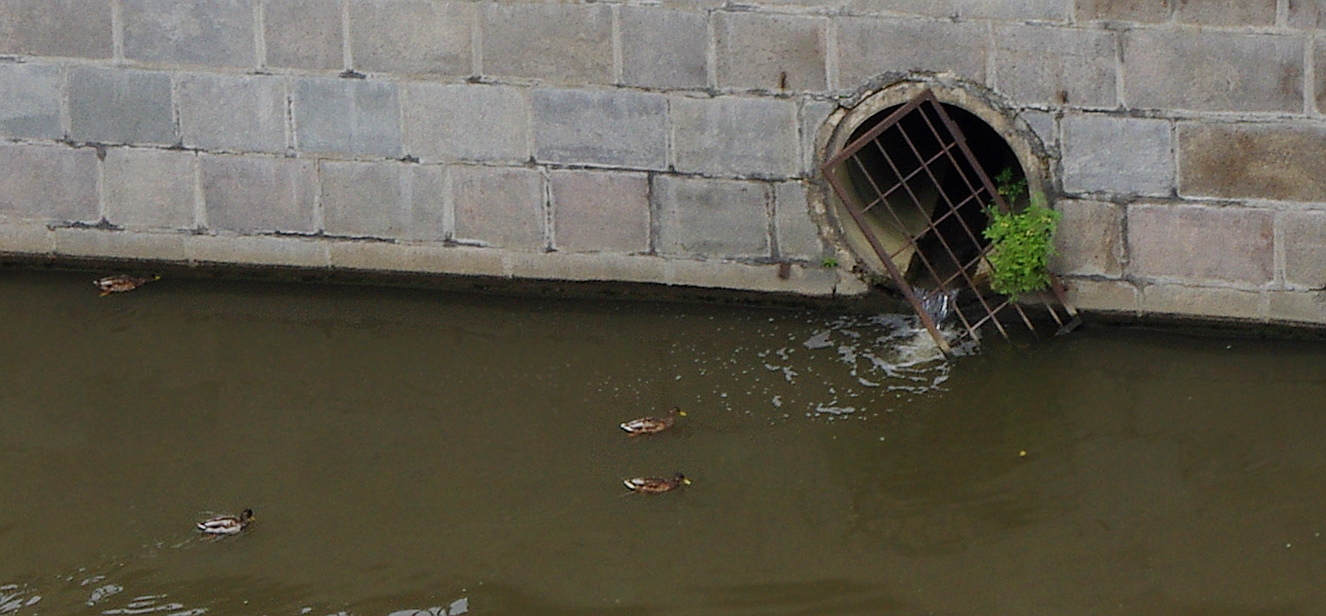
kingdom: Animalia
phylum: Chordata
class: Aves
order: Anseriformes
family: Anatidae
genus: Anas
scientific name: Anas platyrhynchos
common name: Mallard
